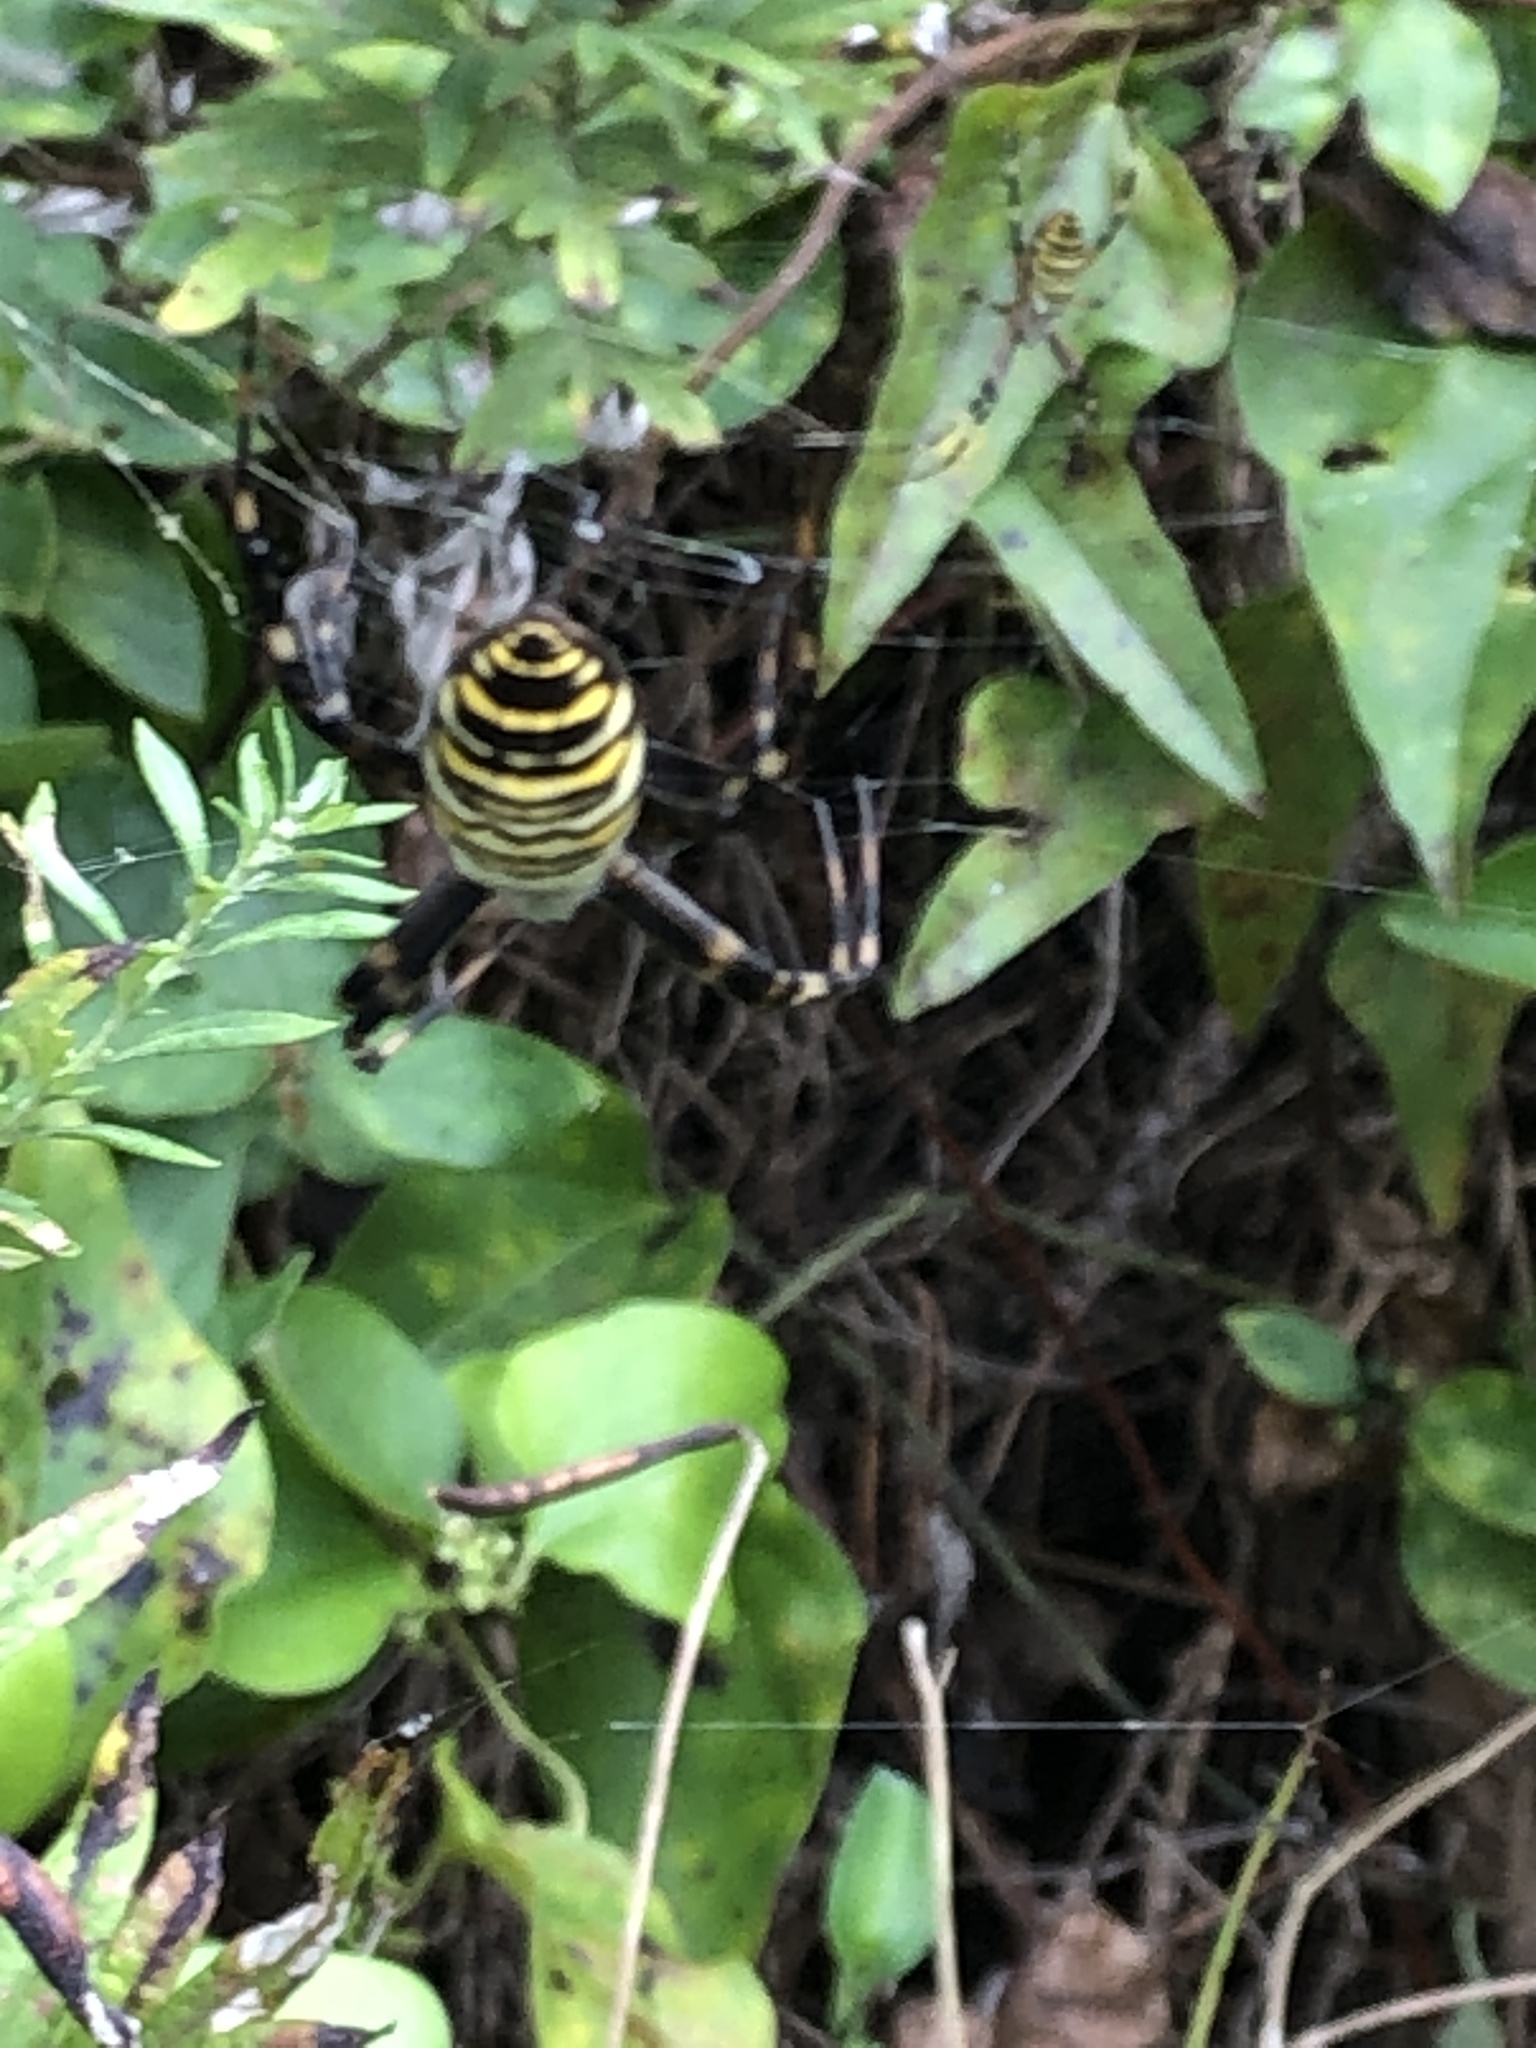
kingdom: Animalia
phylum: Arthropoda
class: Arachnida
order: Araneae
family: Araneidae
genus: Argiope
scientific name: Argiope bruennichi
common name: Wasp spider
